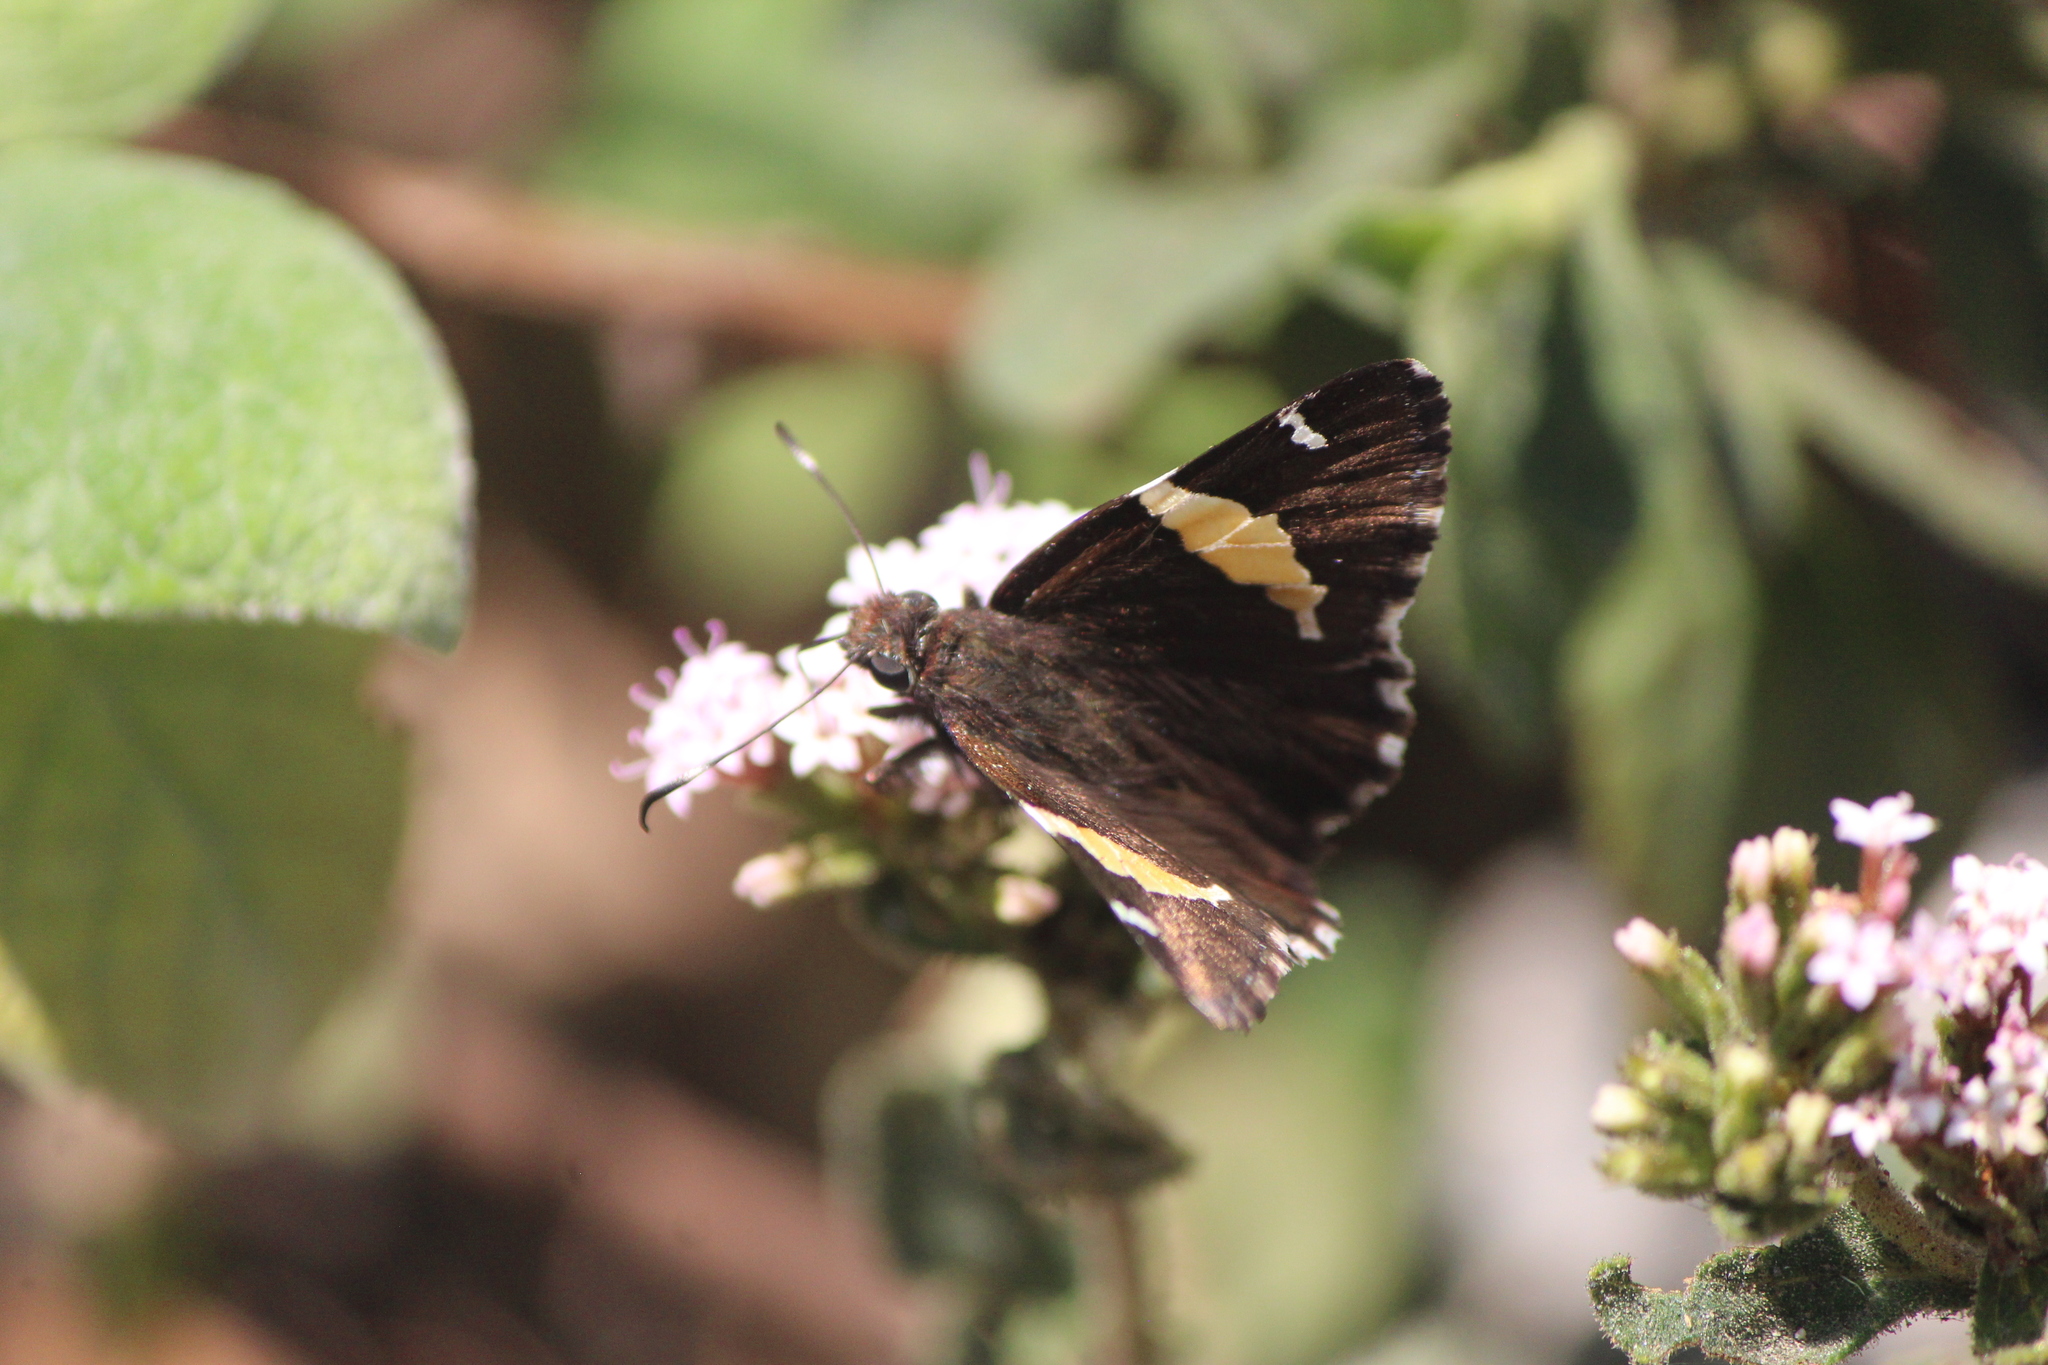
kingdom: Animalia
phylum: Arthropoda
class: Insecta
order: Lepidoptera
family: Hesperiidae
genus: Thorybes
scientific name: Thorybes pseudocellus
